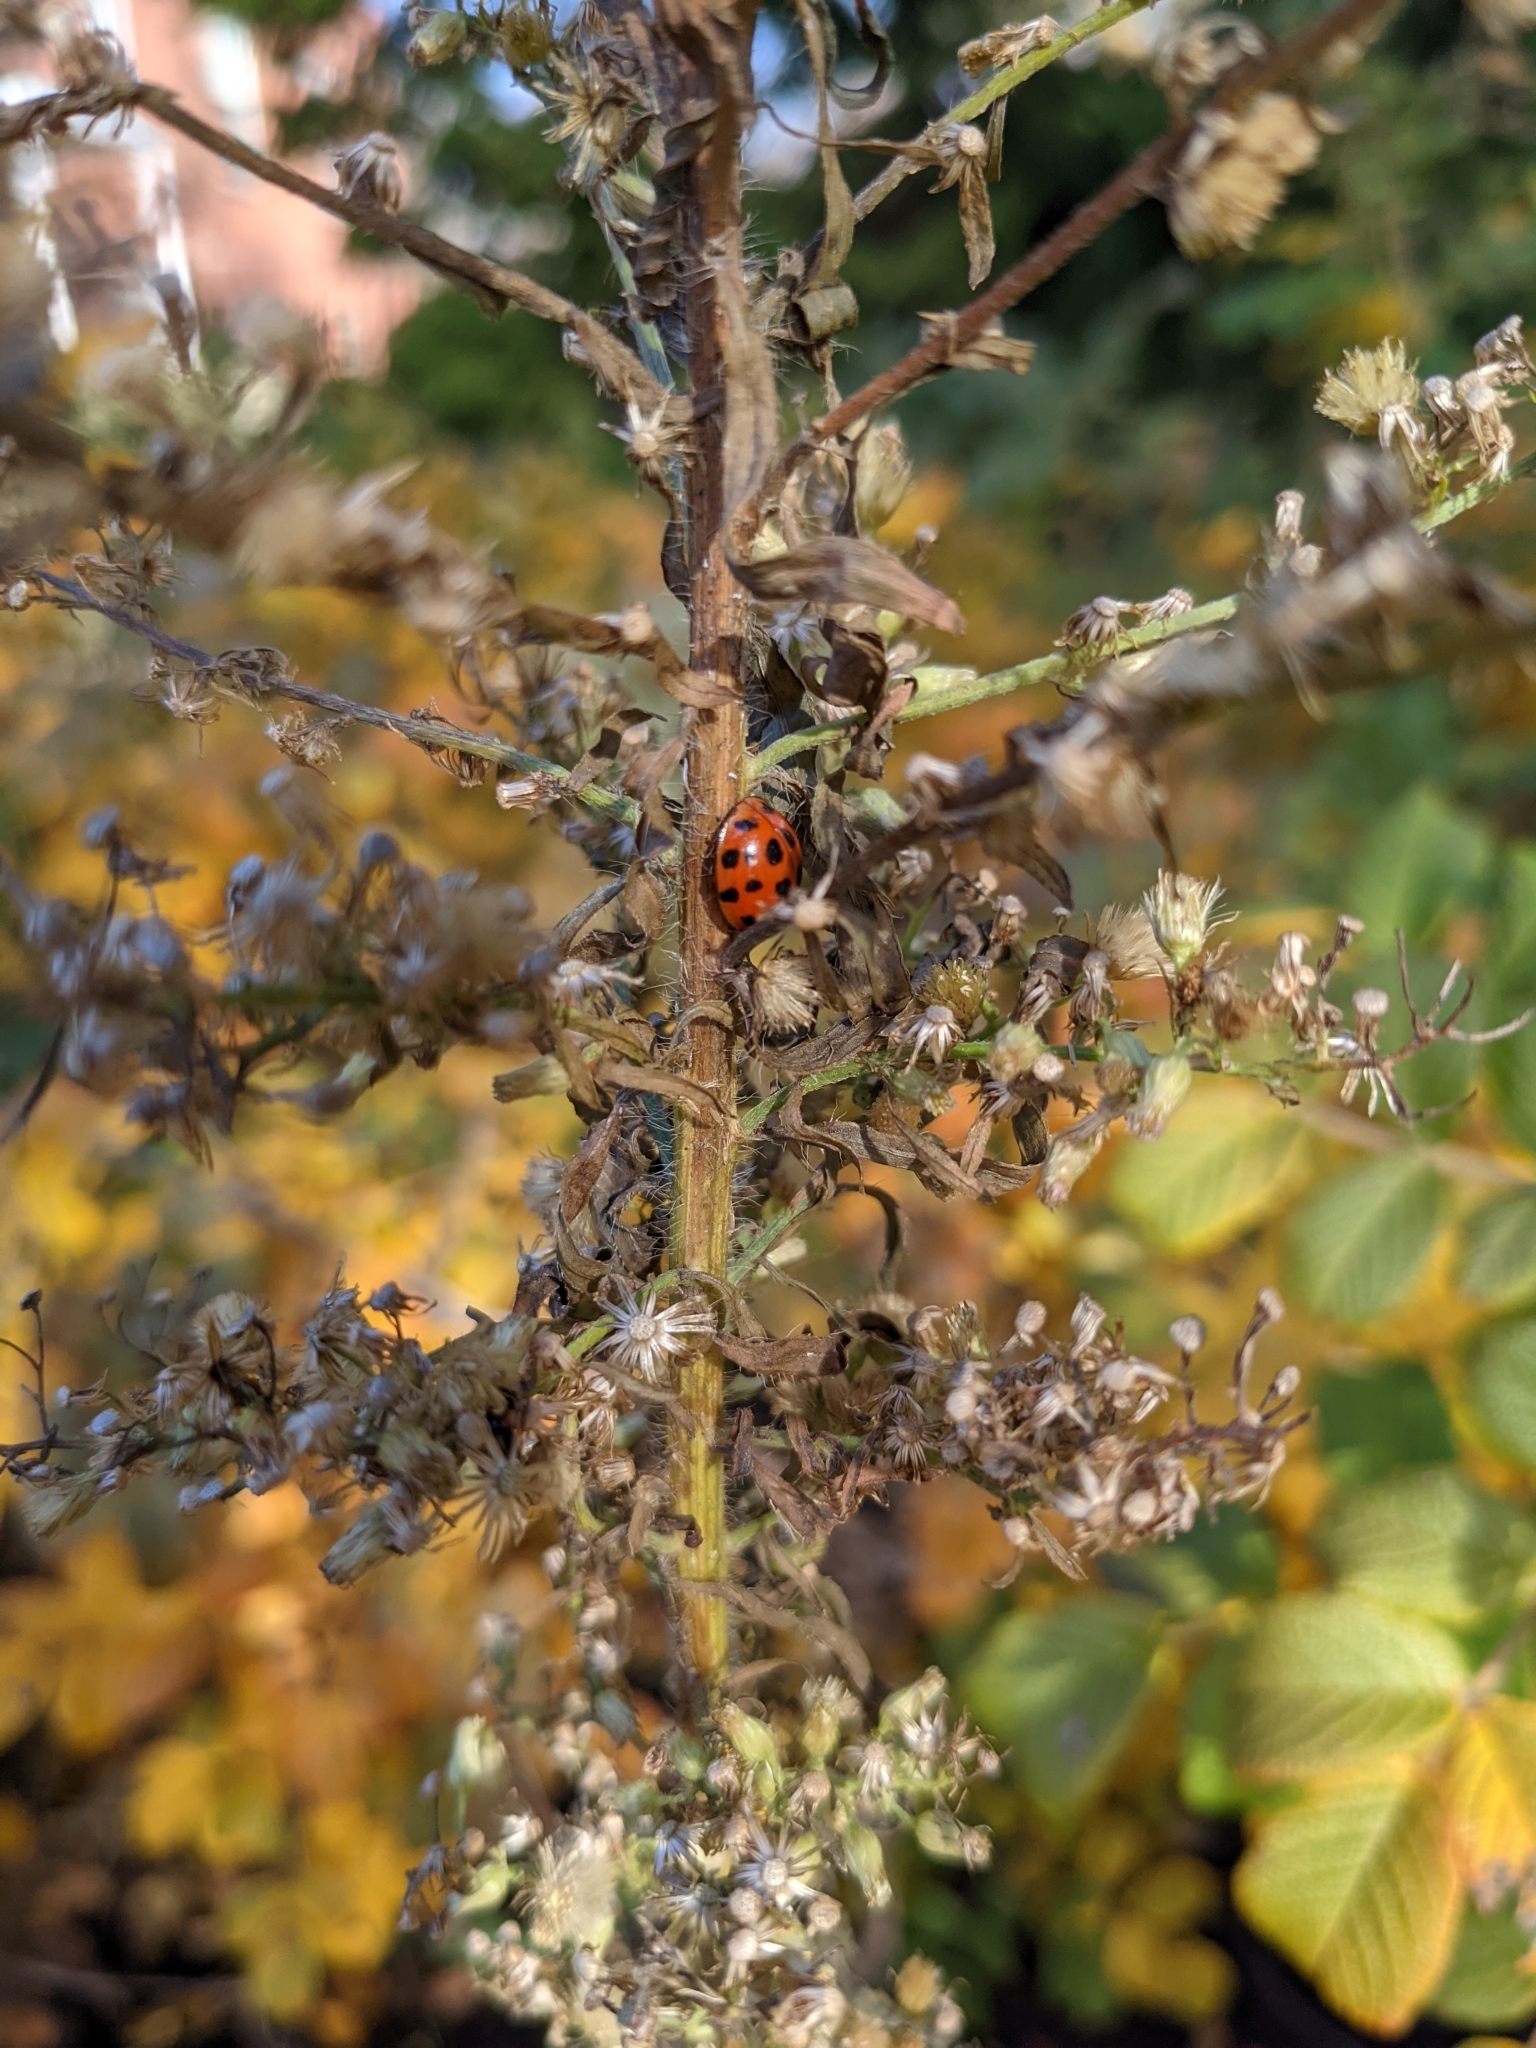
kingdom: Animalia
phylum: Arthropoda
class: Insecta
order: Coleoptera
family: Coccinellidae
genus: Harmonia
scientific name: Harmonia axyridis
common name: Harlequin ladybird
